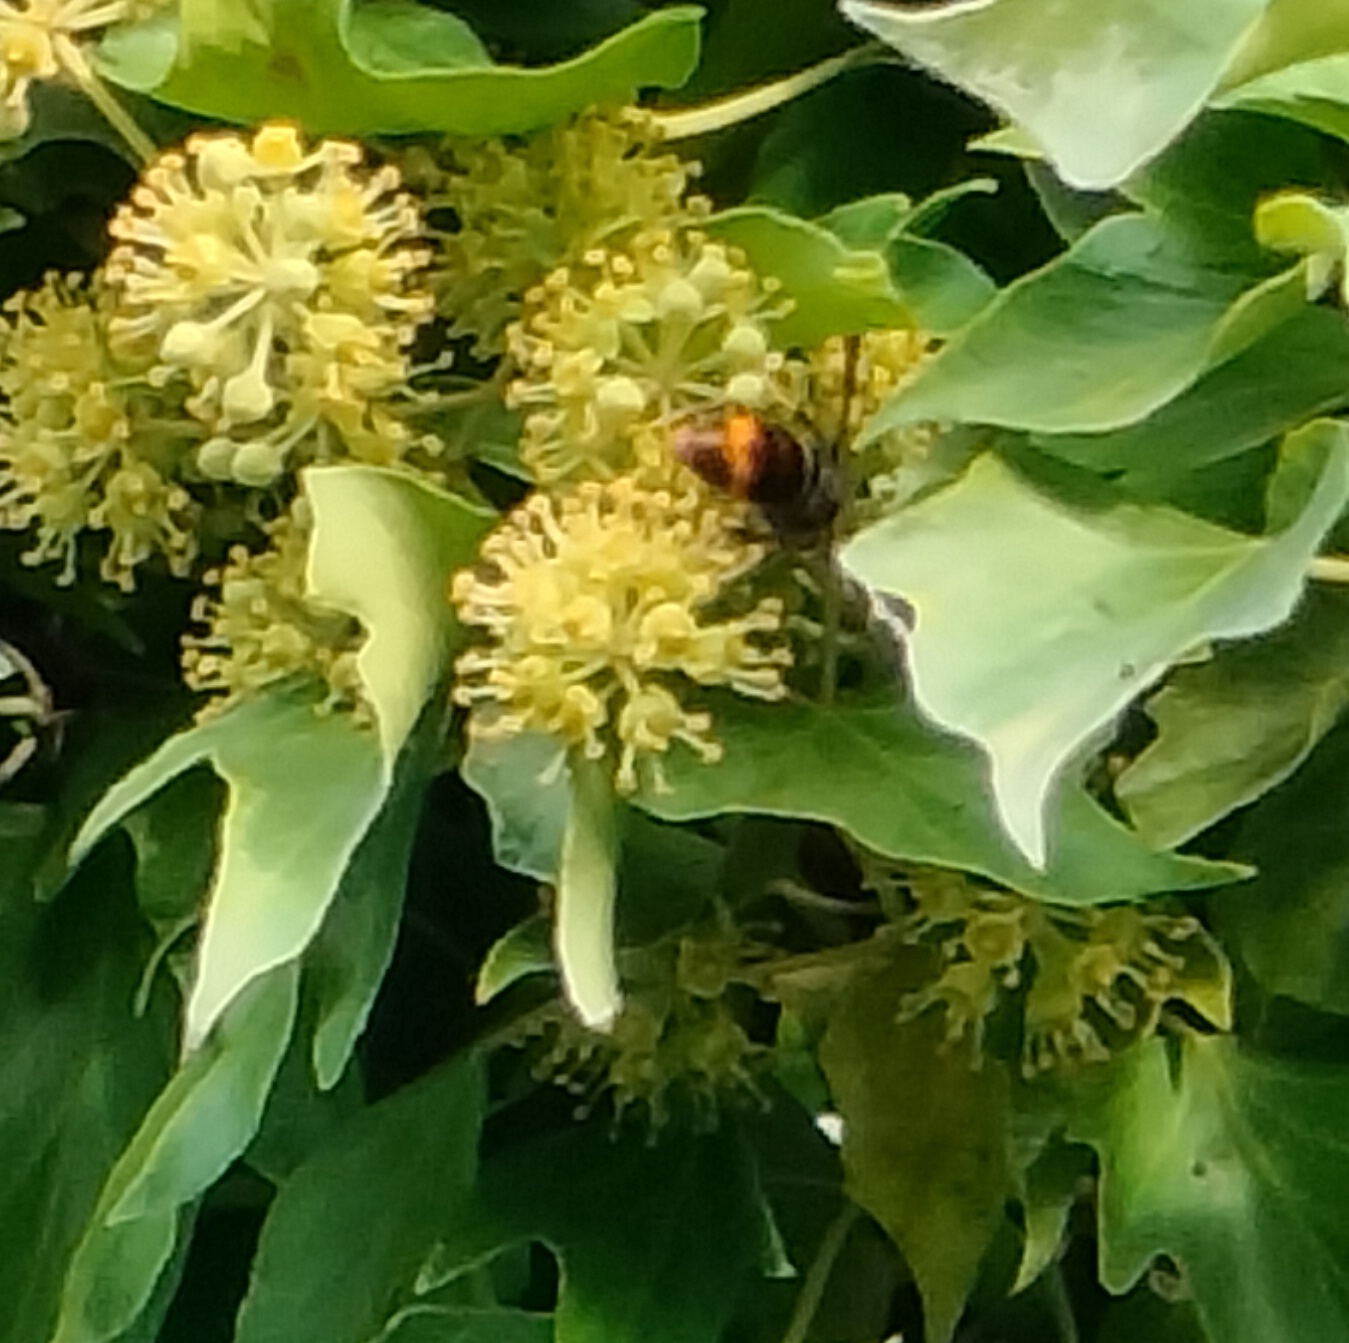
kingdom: Animalia
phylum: Arthropoda
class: Insecta
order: Hymenoptera
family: Vespidae
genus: Vespa
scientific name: Vespa velutina
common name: Asian hornet
